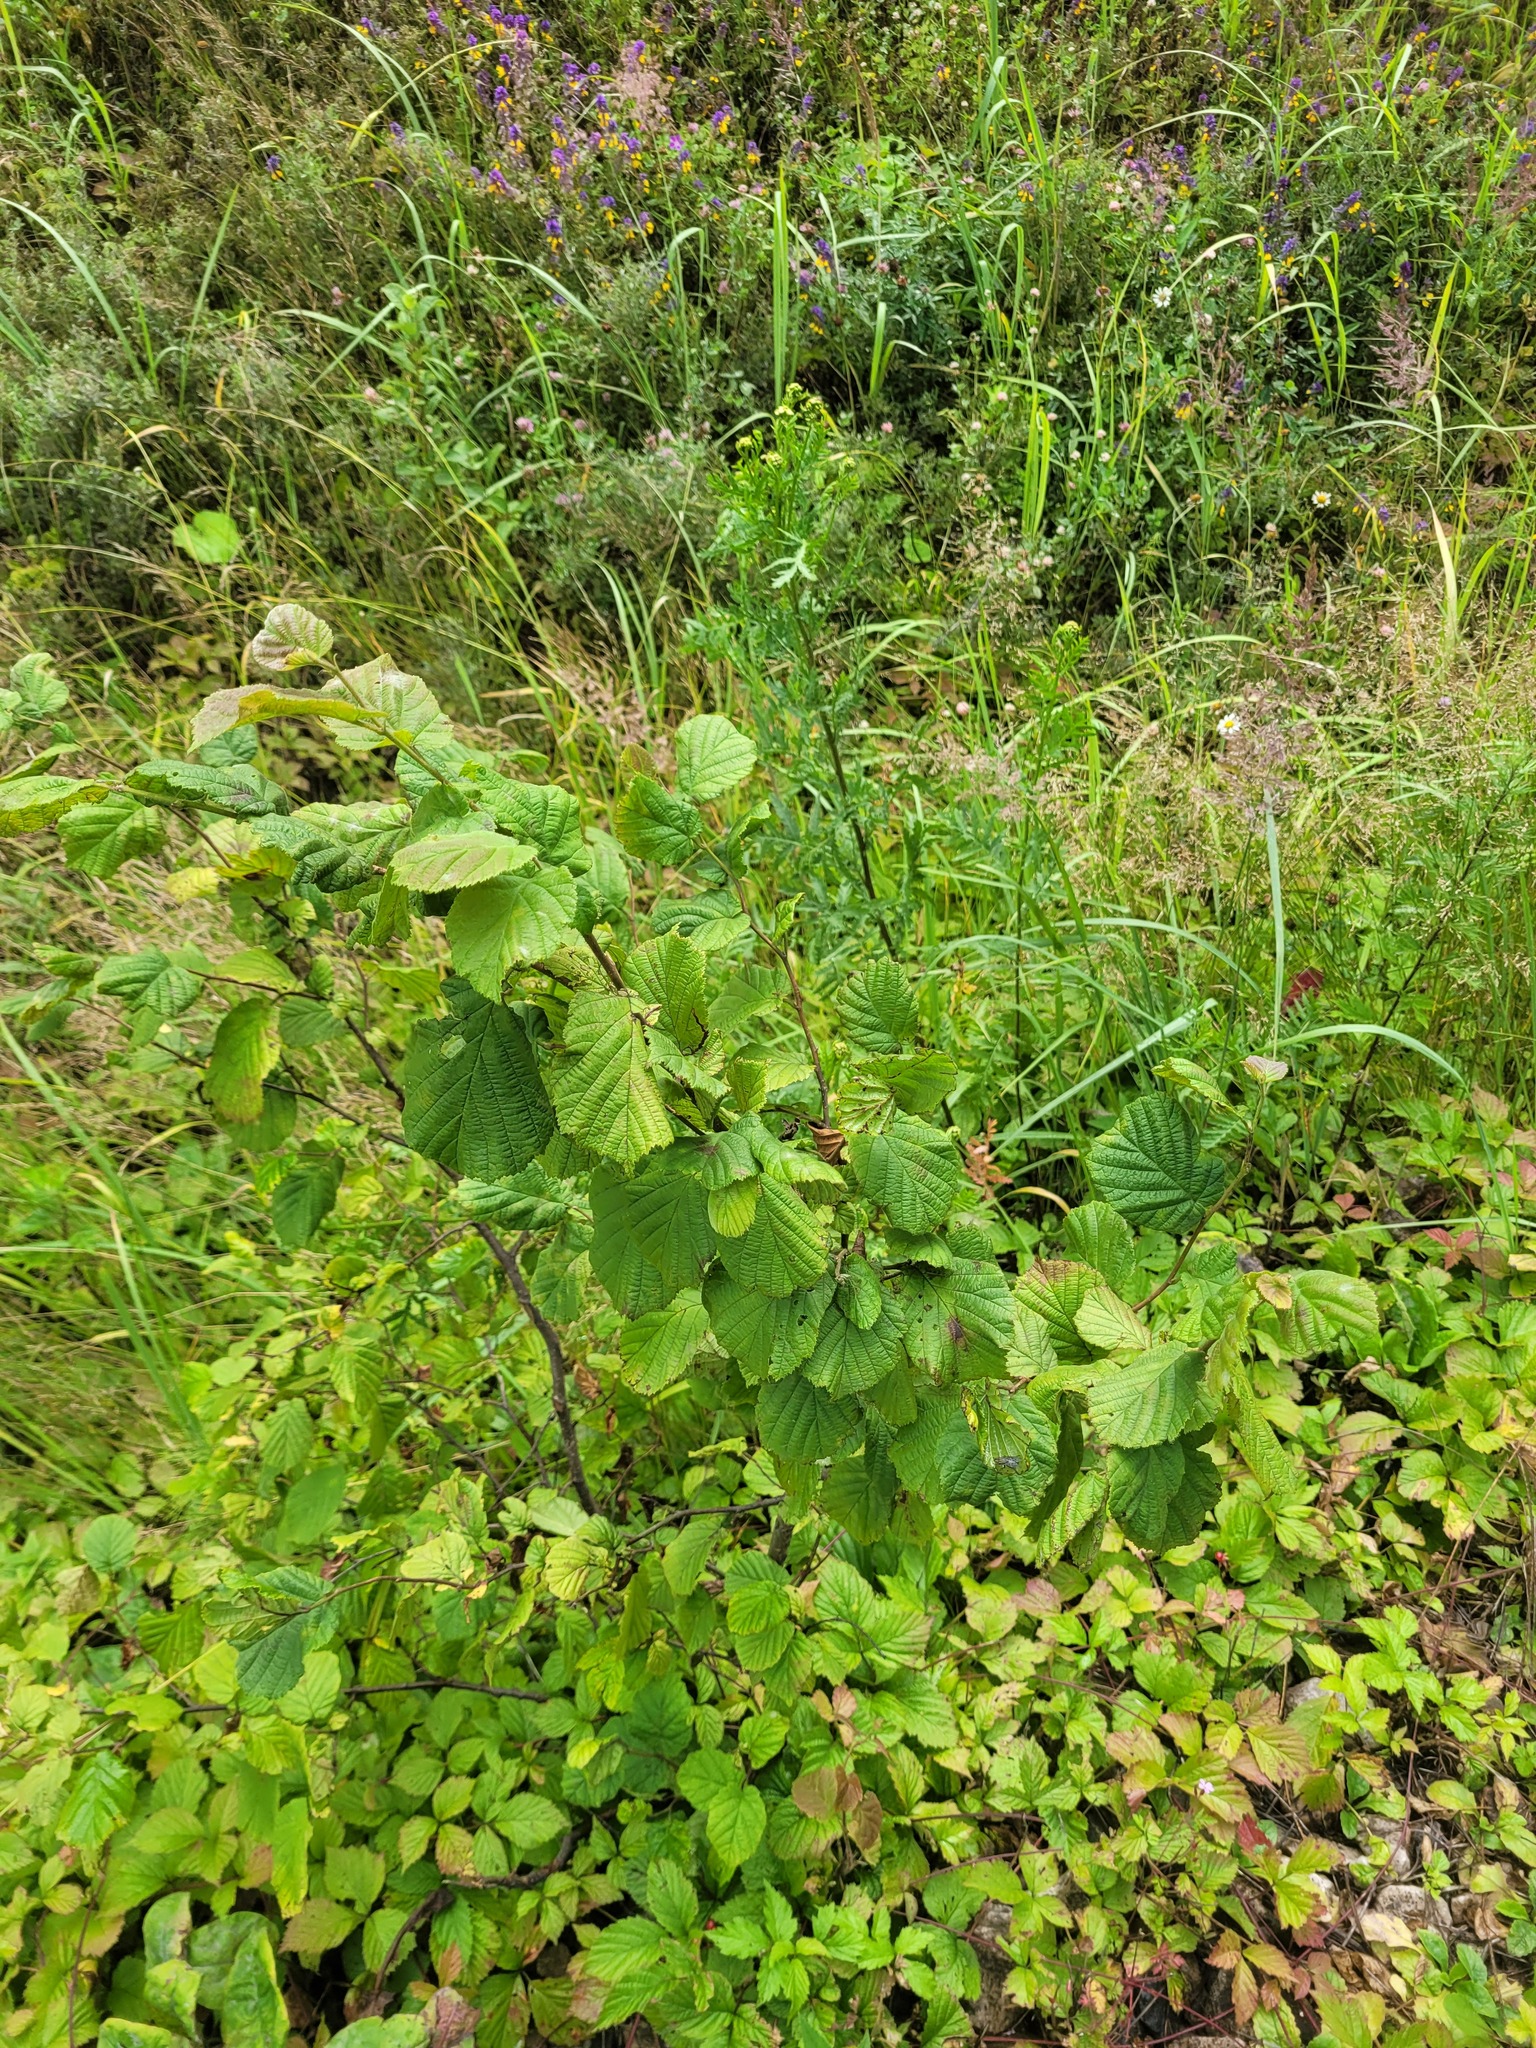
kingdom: Plantae
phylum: Tracheophyta
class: Magnoliopsida
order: Fagales
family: Betulaceae
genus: Corylus
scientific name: Corylus avellana
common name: European hazel
